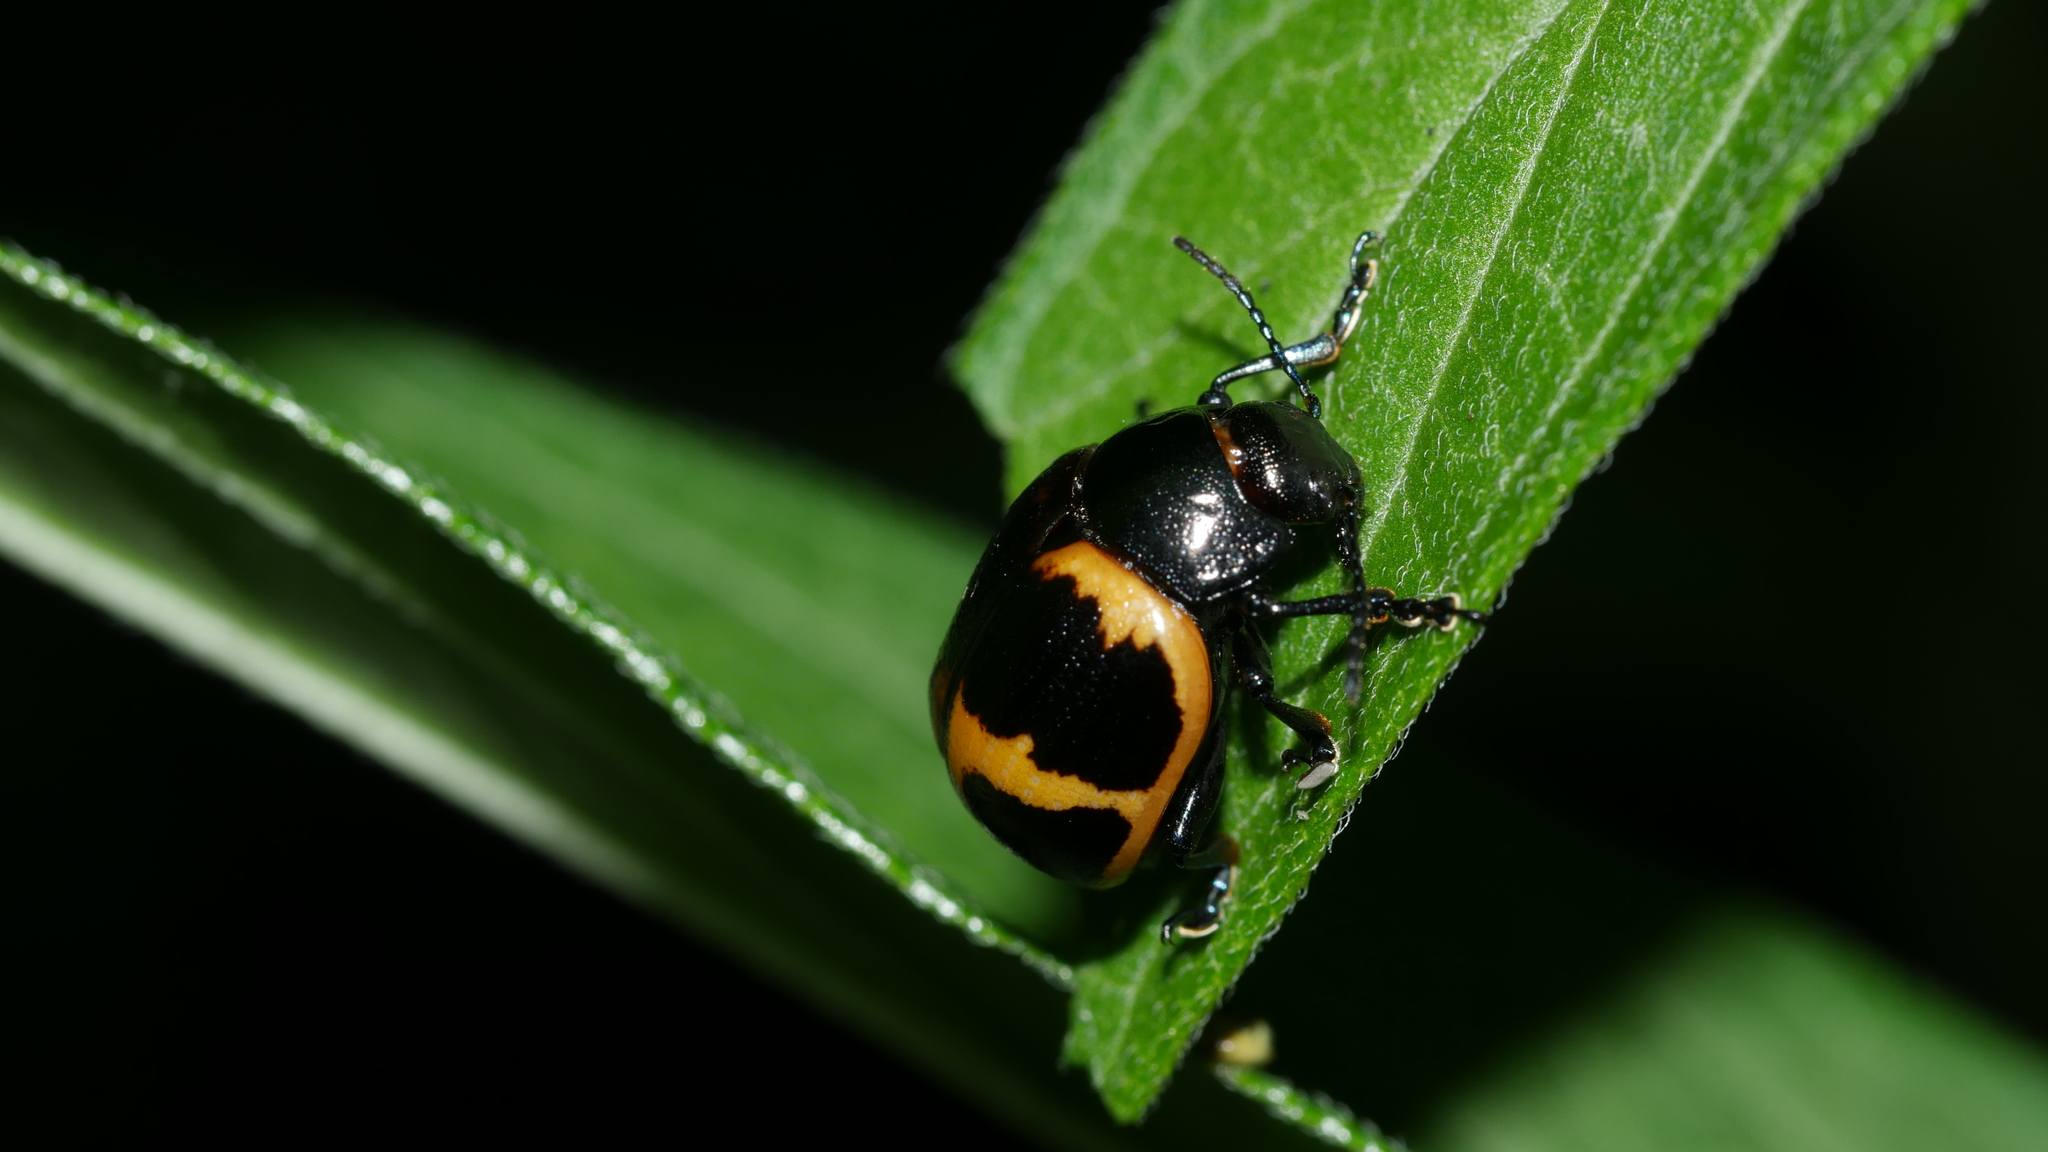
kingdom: Animalia
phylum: Arthropoda
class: Insecta
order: Coleoptera
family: Chrysomelidae
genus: Labidomera
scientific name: Labidomera clivicollis
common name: Swamp milkweed leaf beetle
